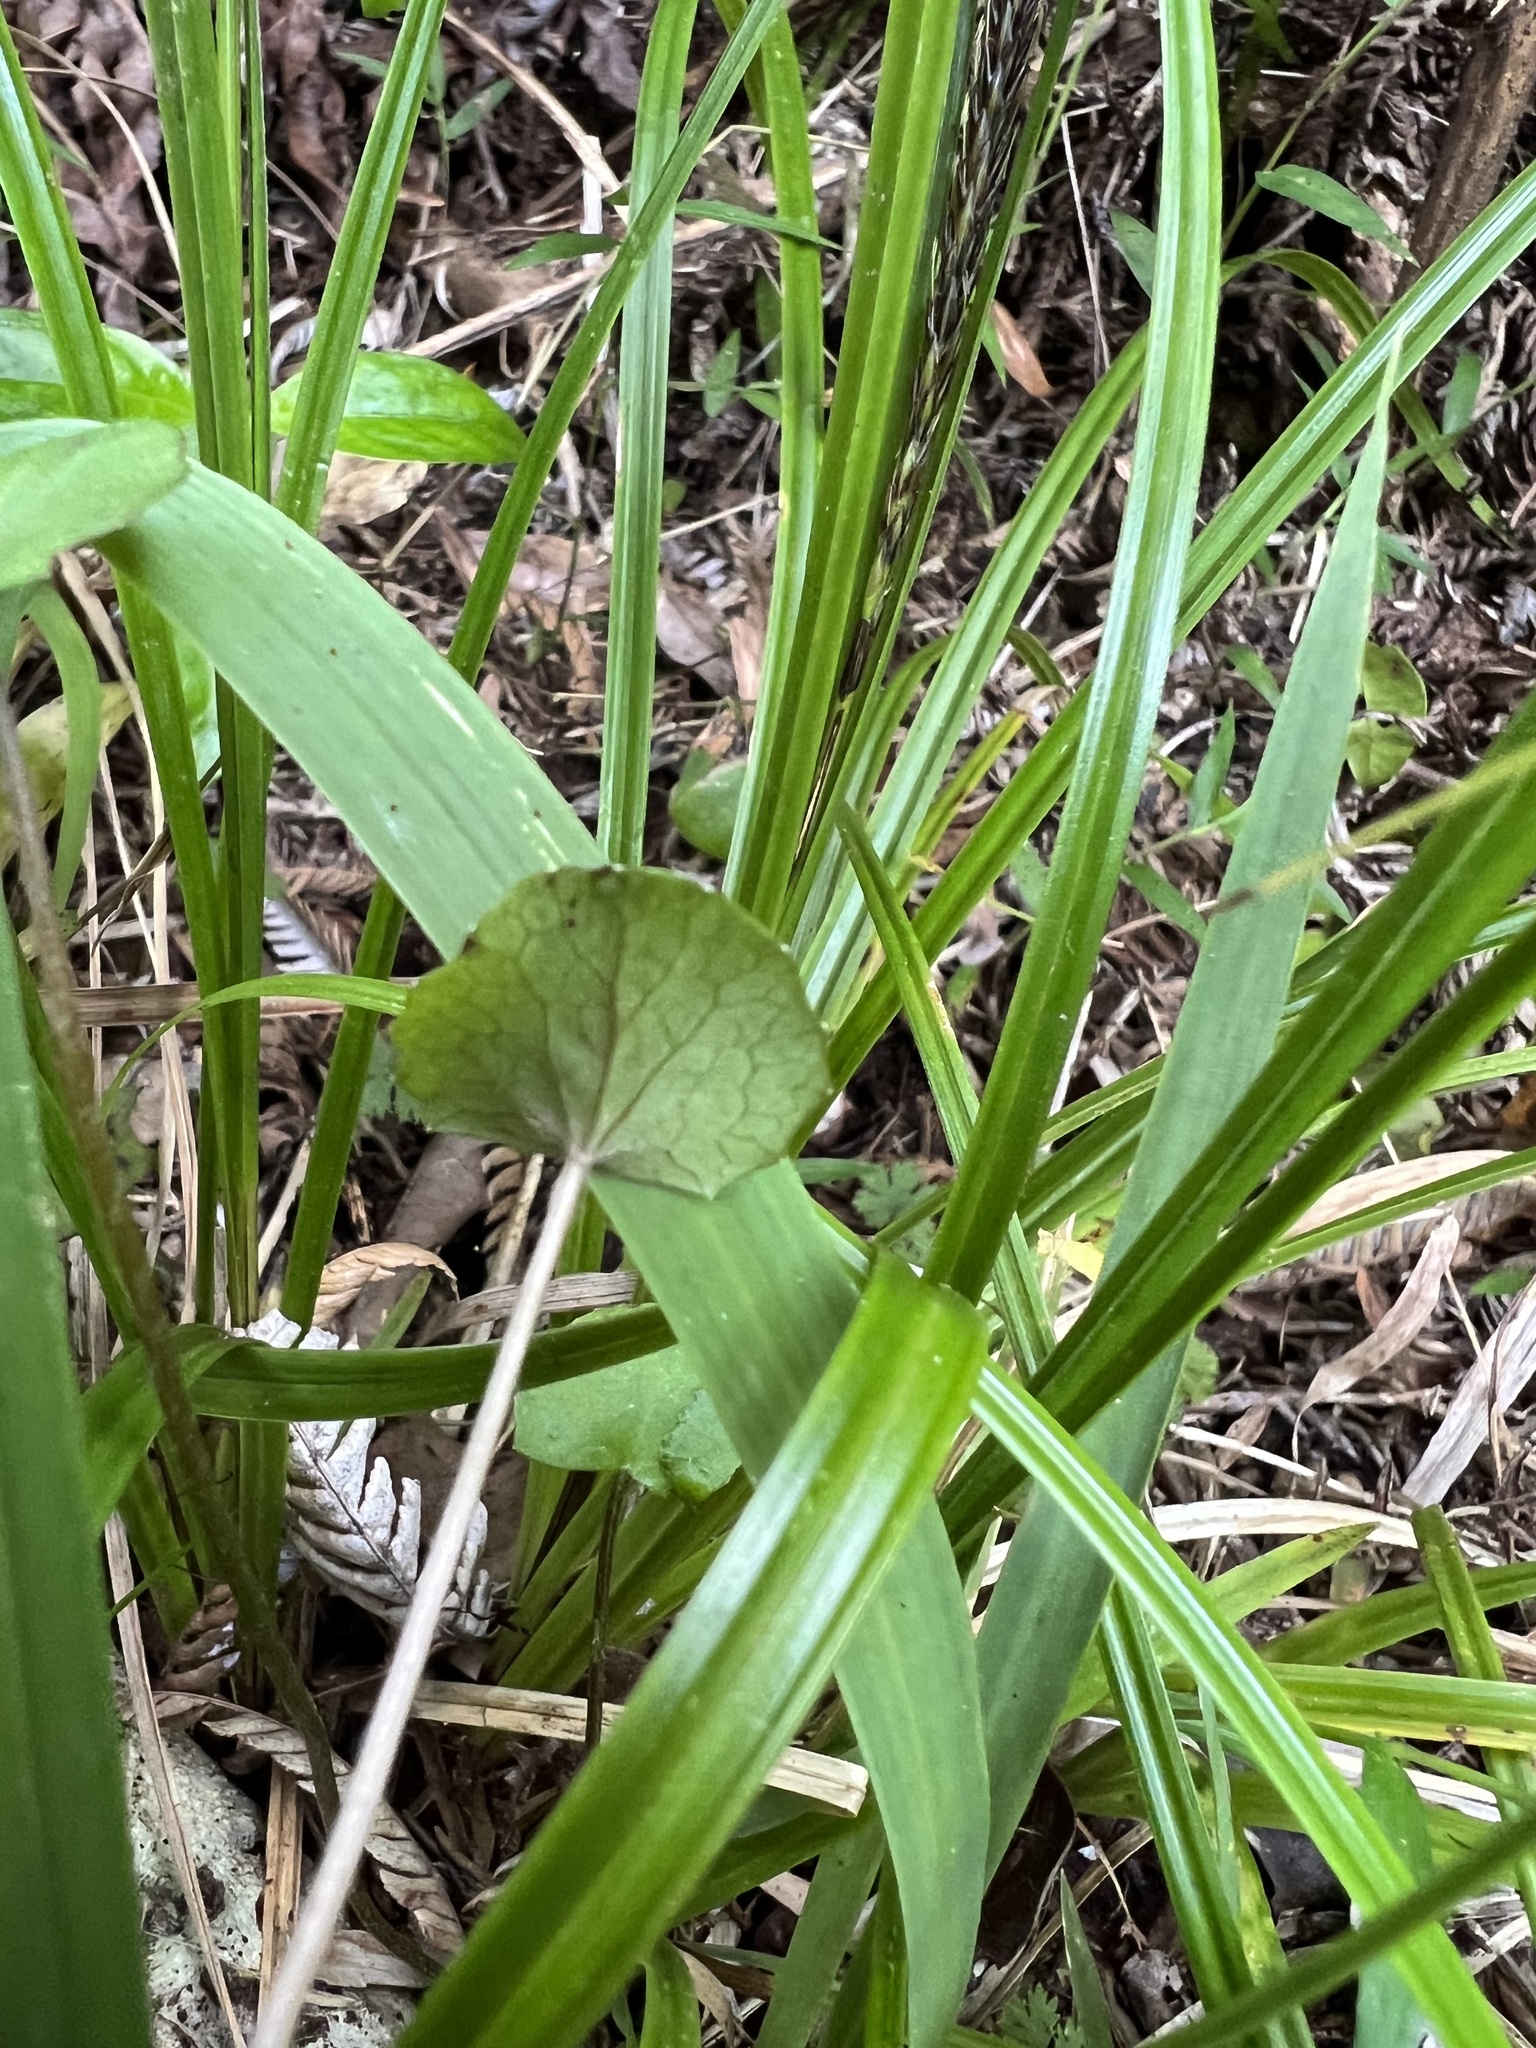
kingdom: Plantae
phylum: Tracheophyta
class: Magnoliopsida
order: Apiales
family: Apiaceae
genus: Centella
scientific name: Centella uniflora
